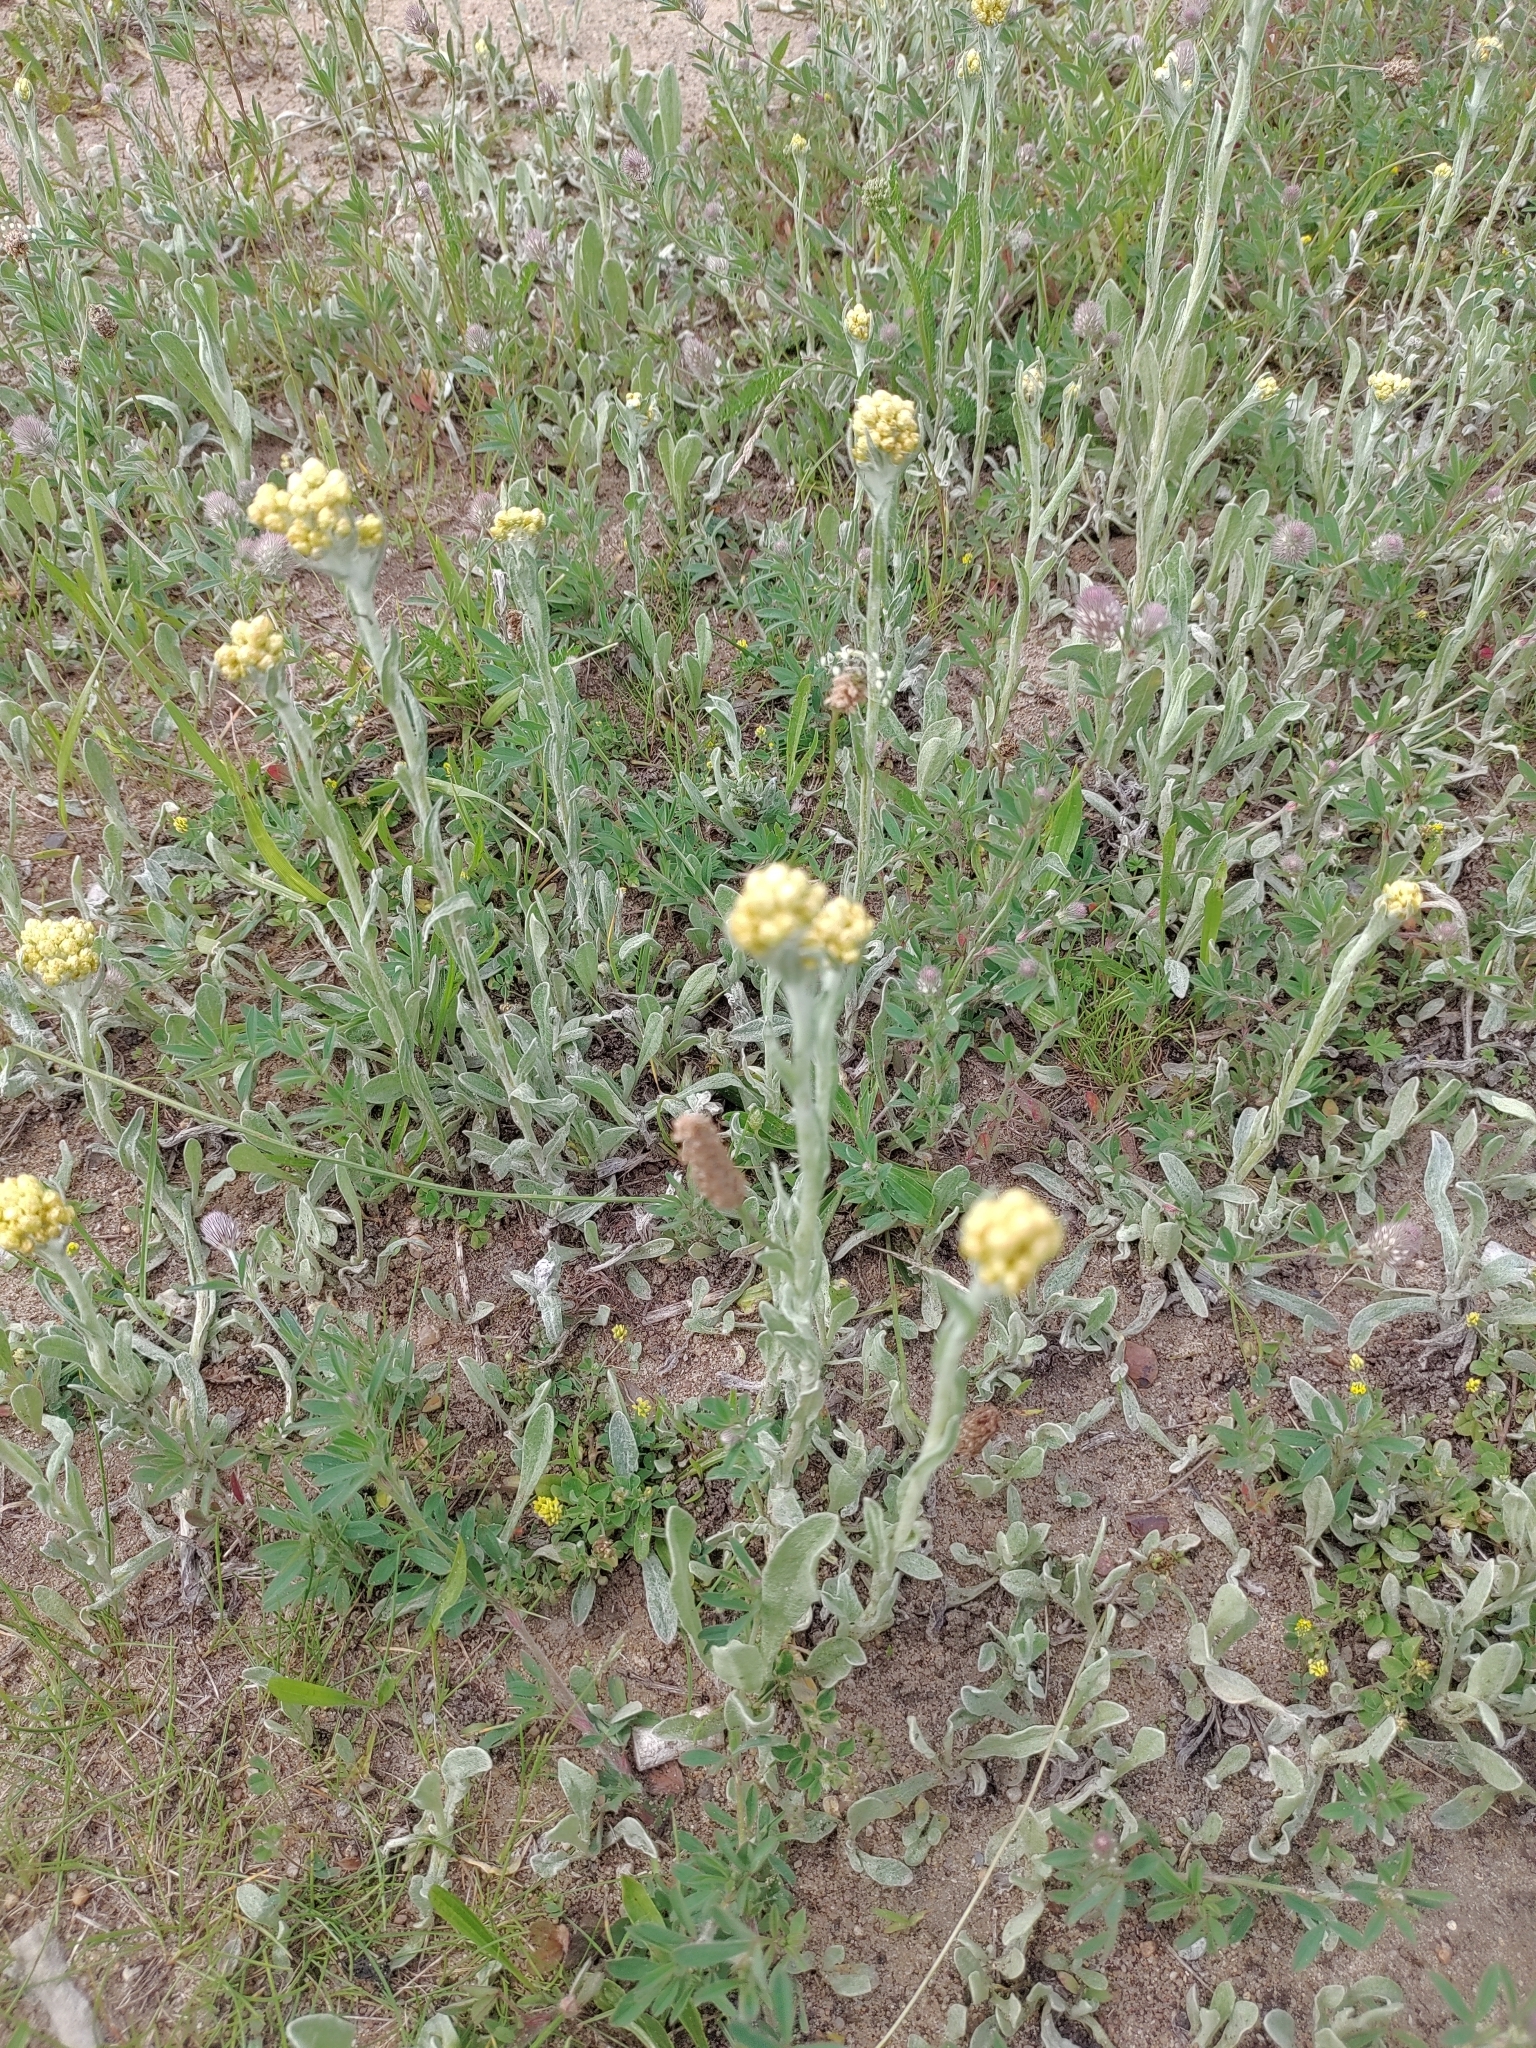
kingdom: Plantae
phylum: Tracheophyta
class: Magnoliopsida
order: Asterales
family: Asteraceae
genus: Helichrysum
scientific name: Helichrysum arenarium
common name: Strawflower
